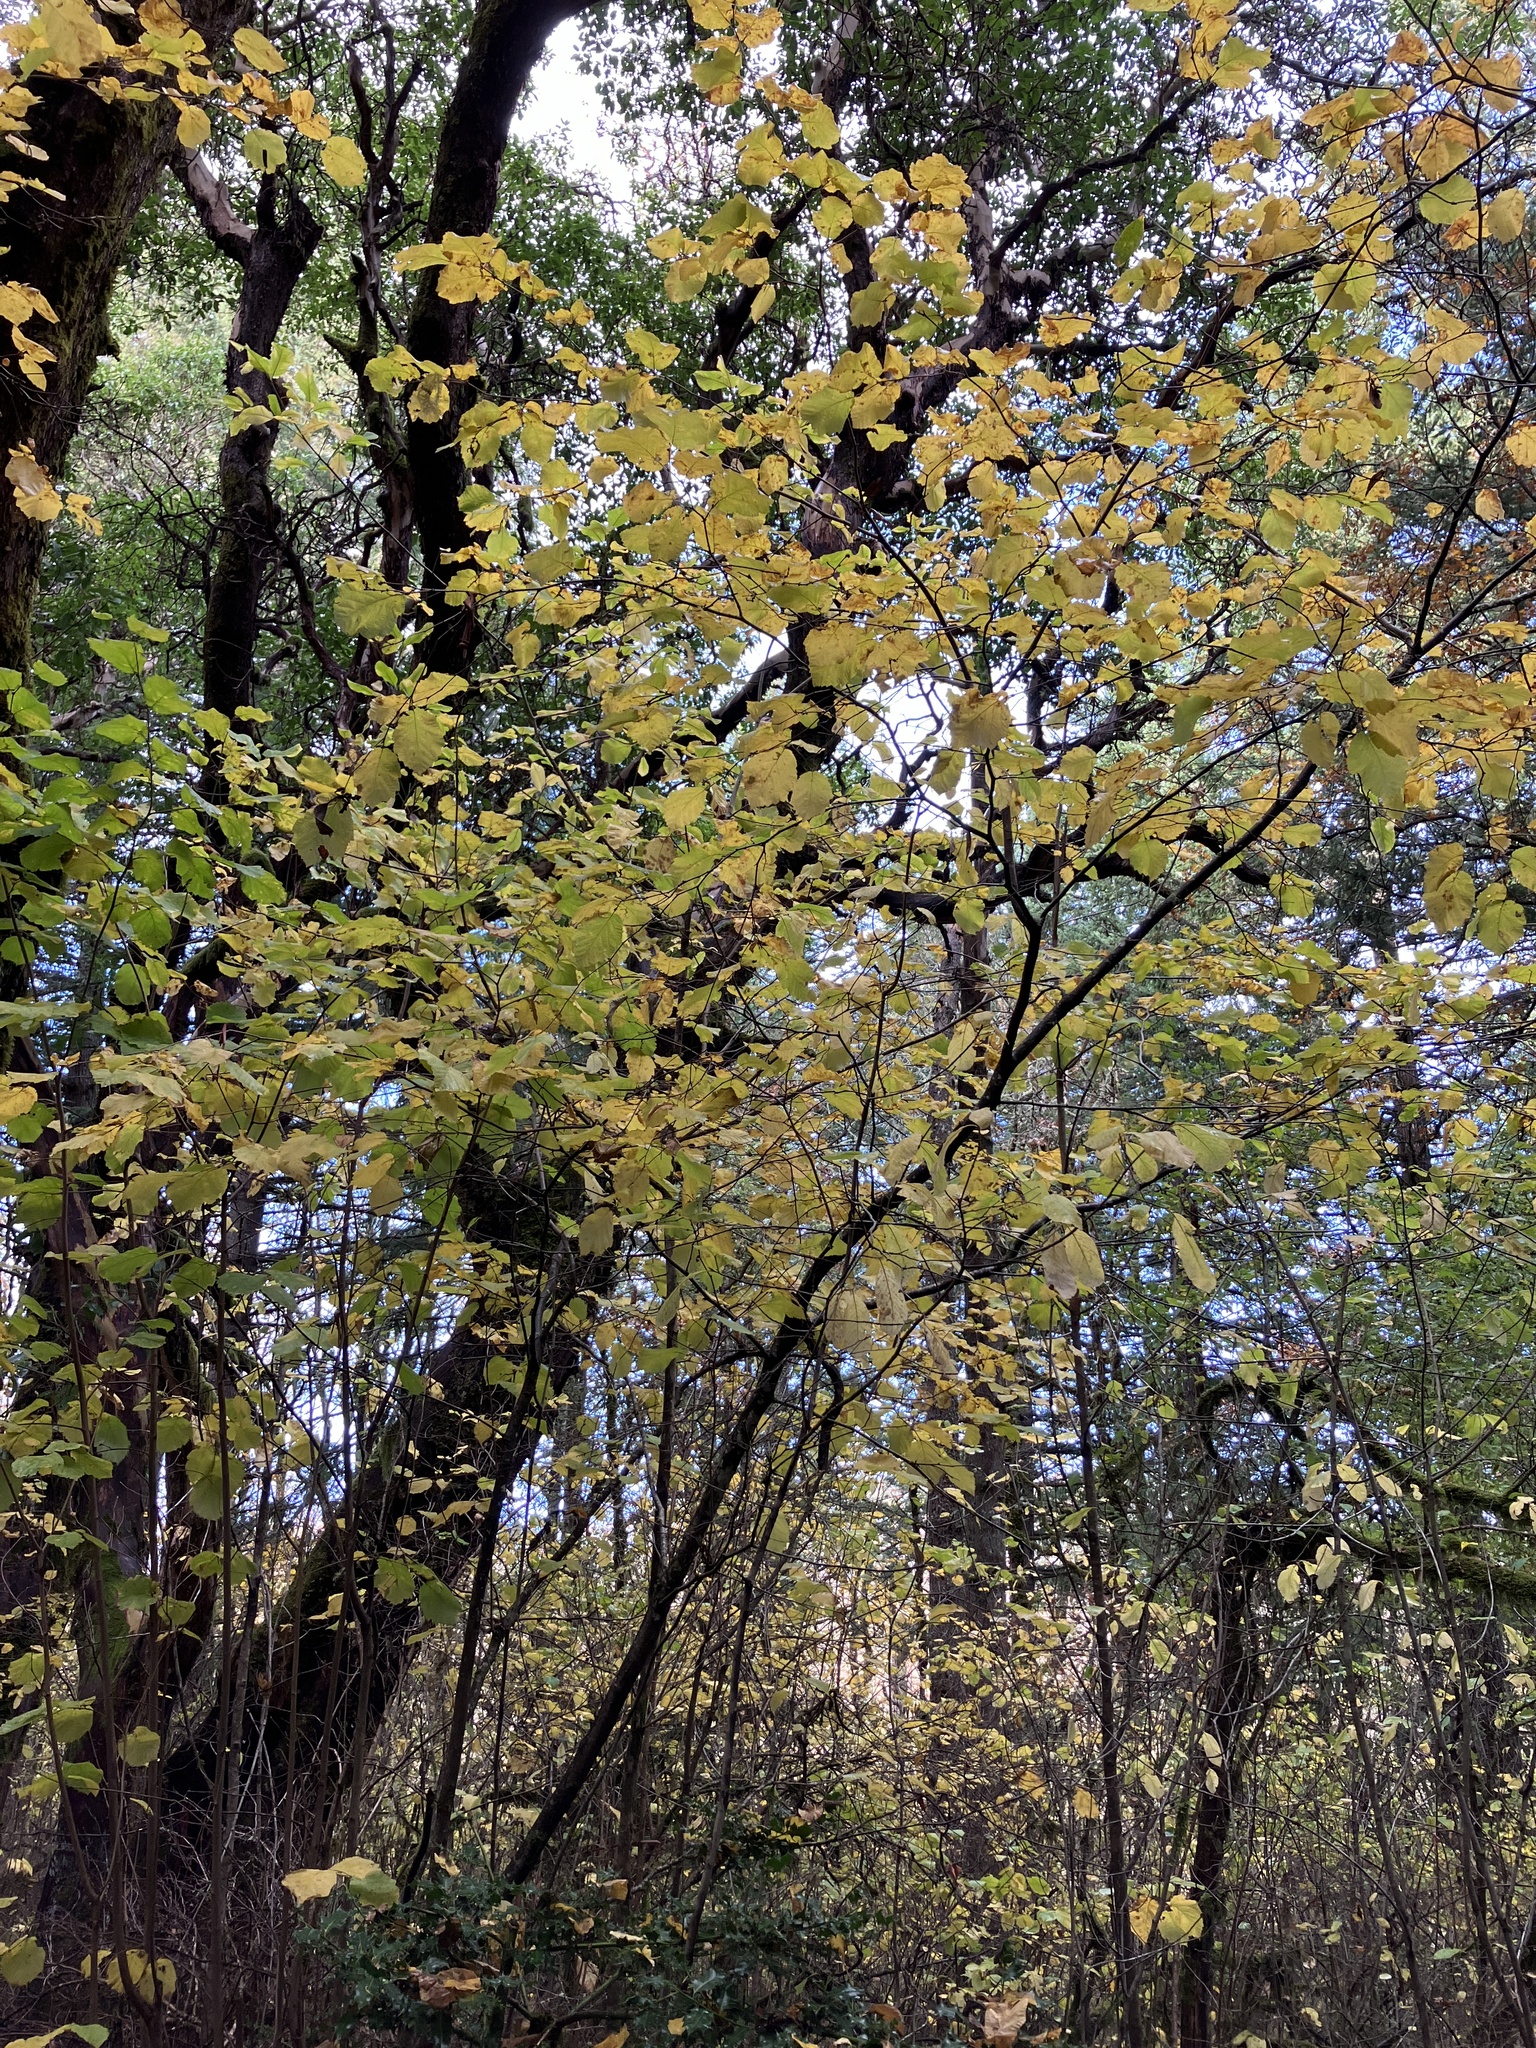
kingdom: Plantae
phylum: Tracheophyta
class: Magnoliopsida
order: Fagales
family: Betulaceae
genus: Corylus
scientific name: Corylus cornuta
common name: Beaked hazel
